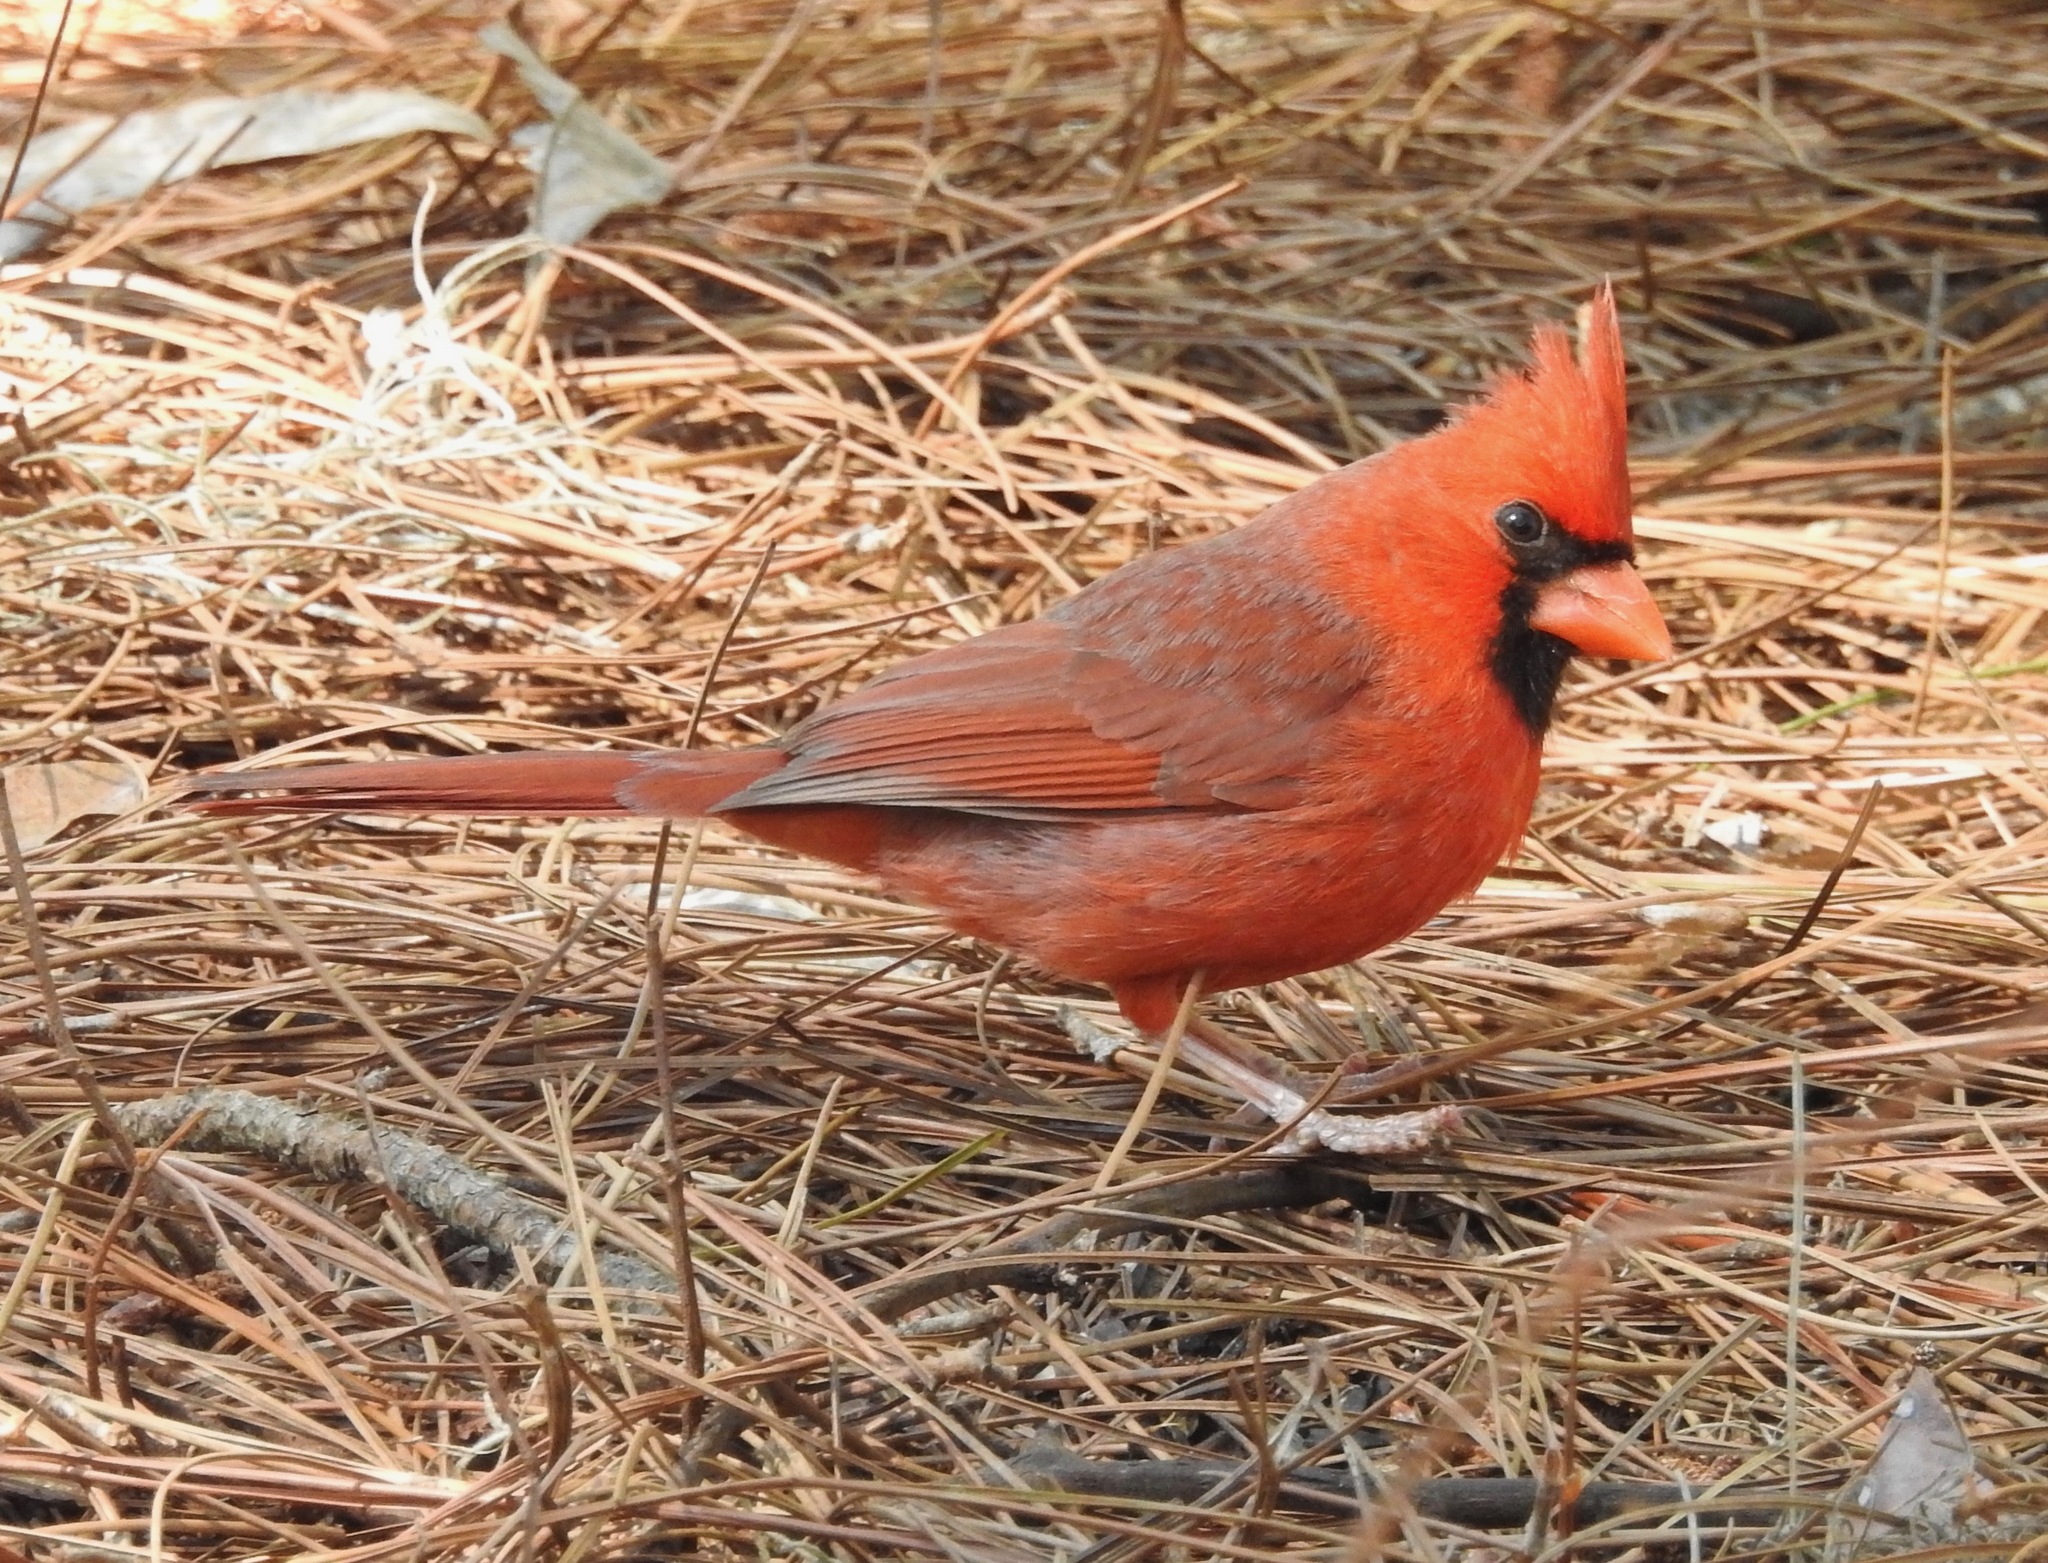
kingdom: Animalia
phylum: Chordata
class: Aves
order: Passeriformes
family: Cardinalidae
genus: Cardinalis
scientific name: Cardinalis cardinalis
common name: Northern cardinal
